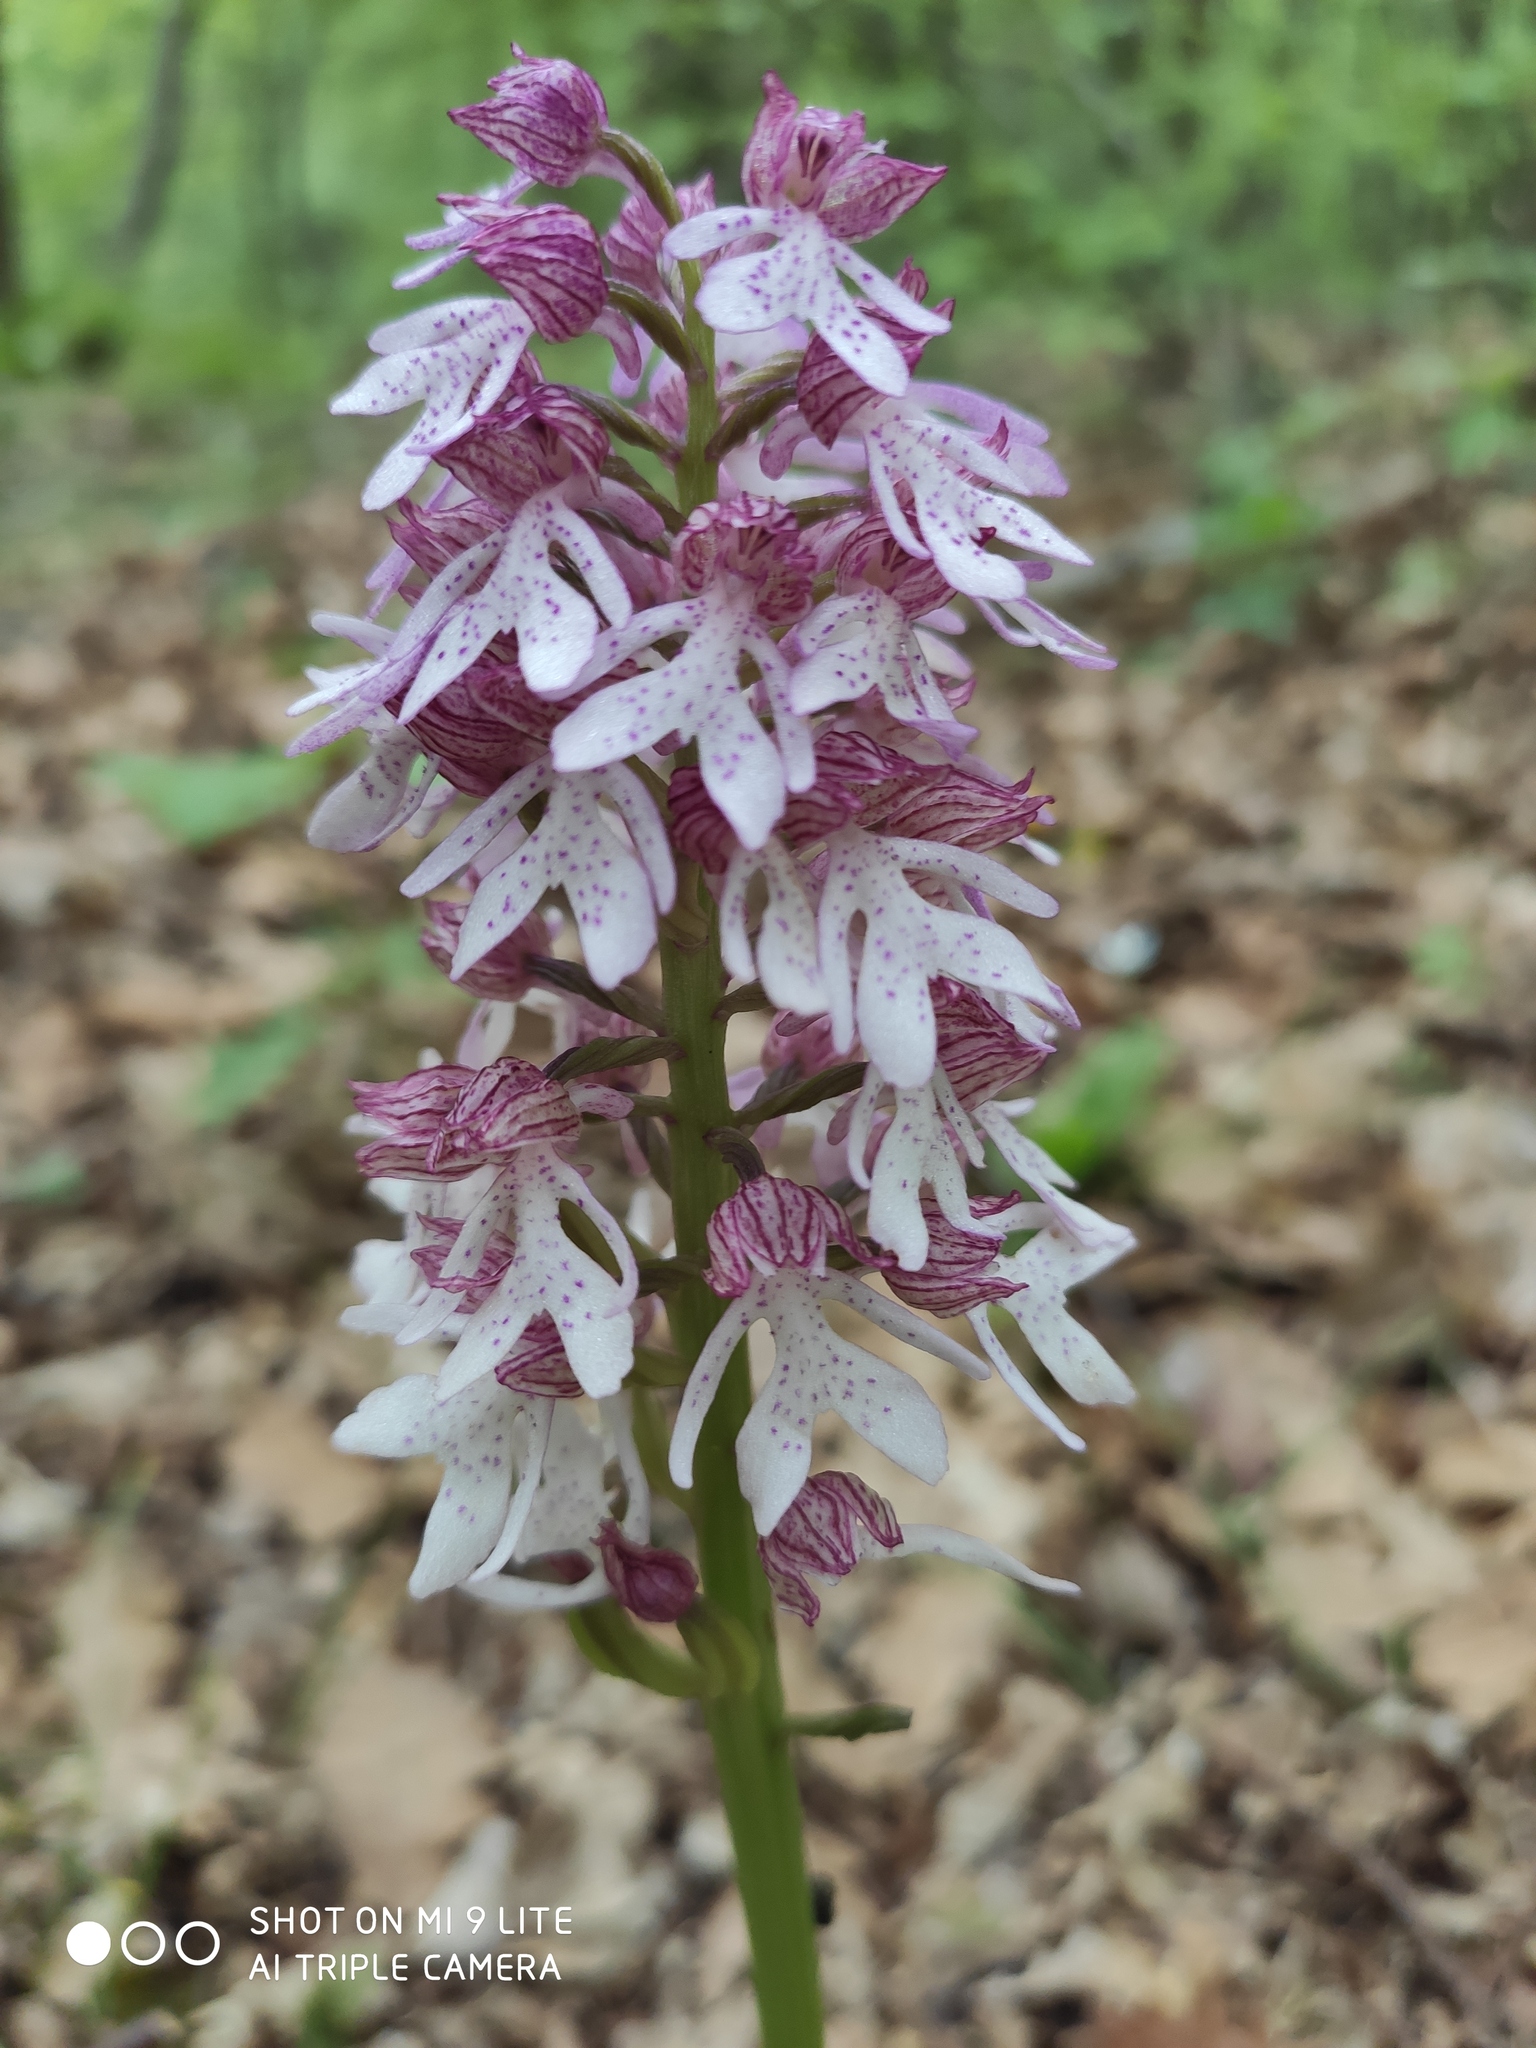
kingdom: Plantae
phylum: Tracheophyta
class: Liliopsida
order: Asparagales
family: Orchidaceae
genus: Orchis
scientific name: Orchis purpurea
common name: Lady orchid
